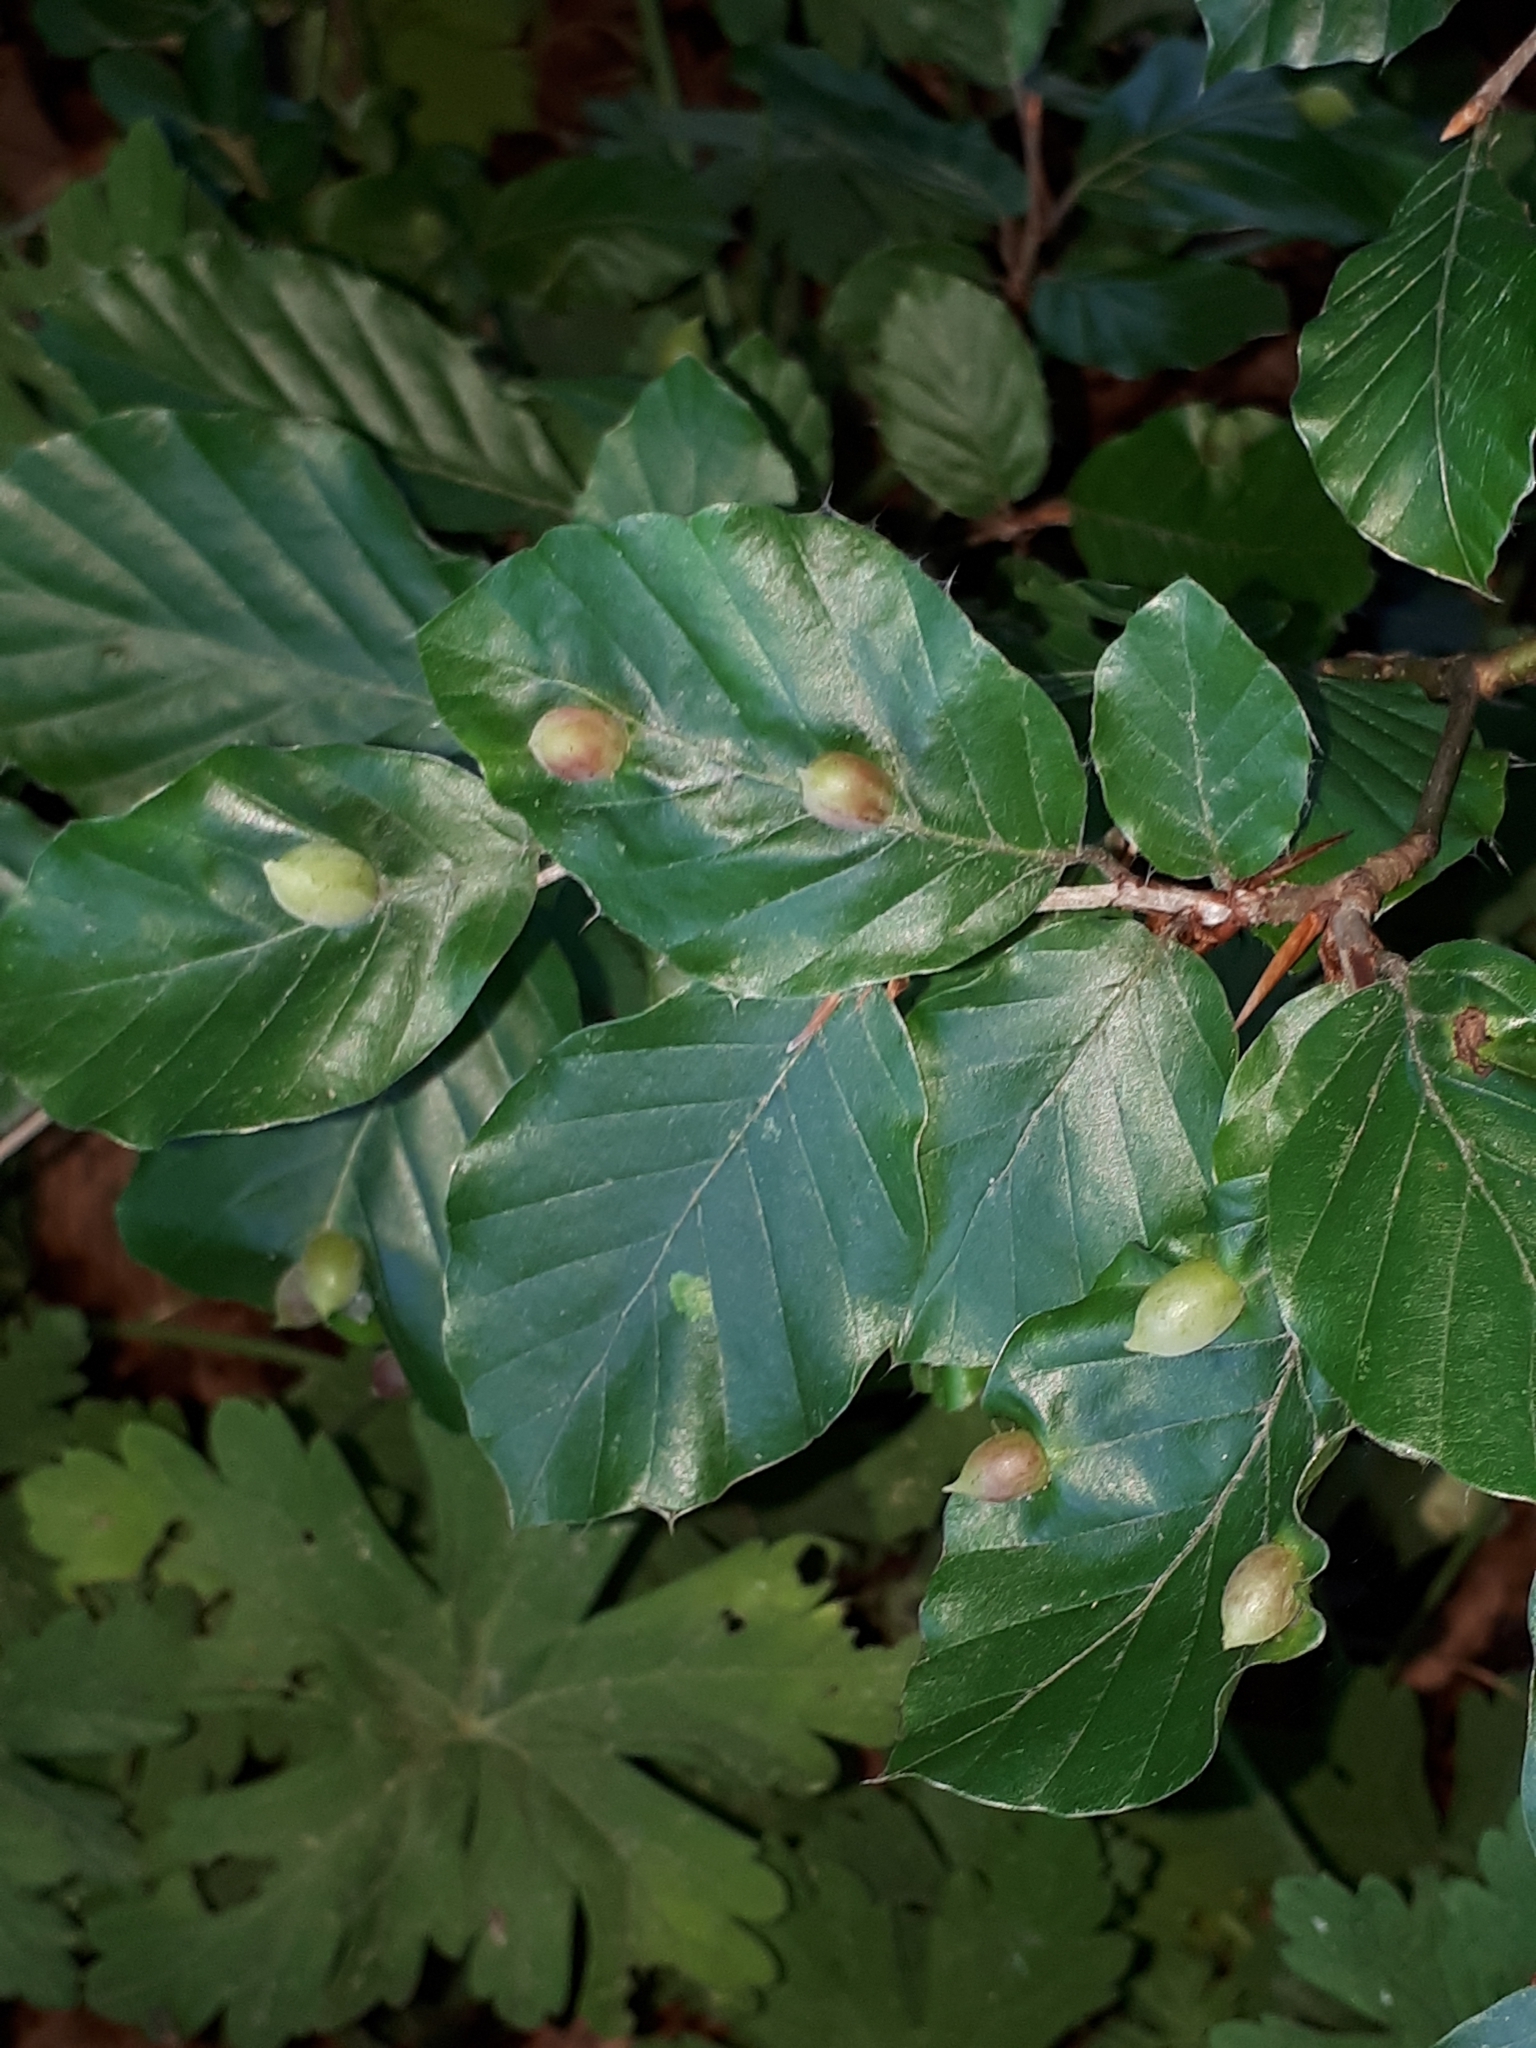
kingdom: Animalia
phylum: Arthropoda
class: Insecta
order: Diptera
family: Cecidomyiidae
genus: Mikiola
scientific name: Mikiola fagi
